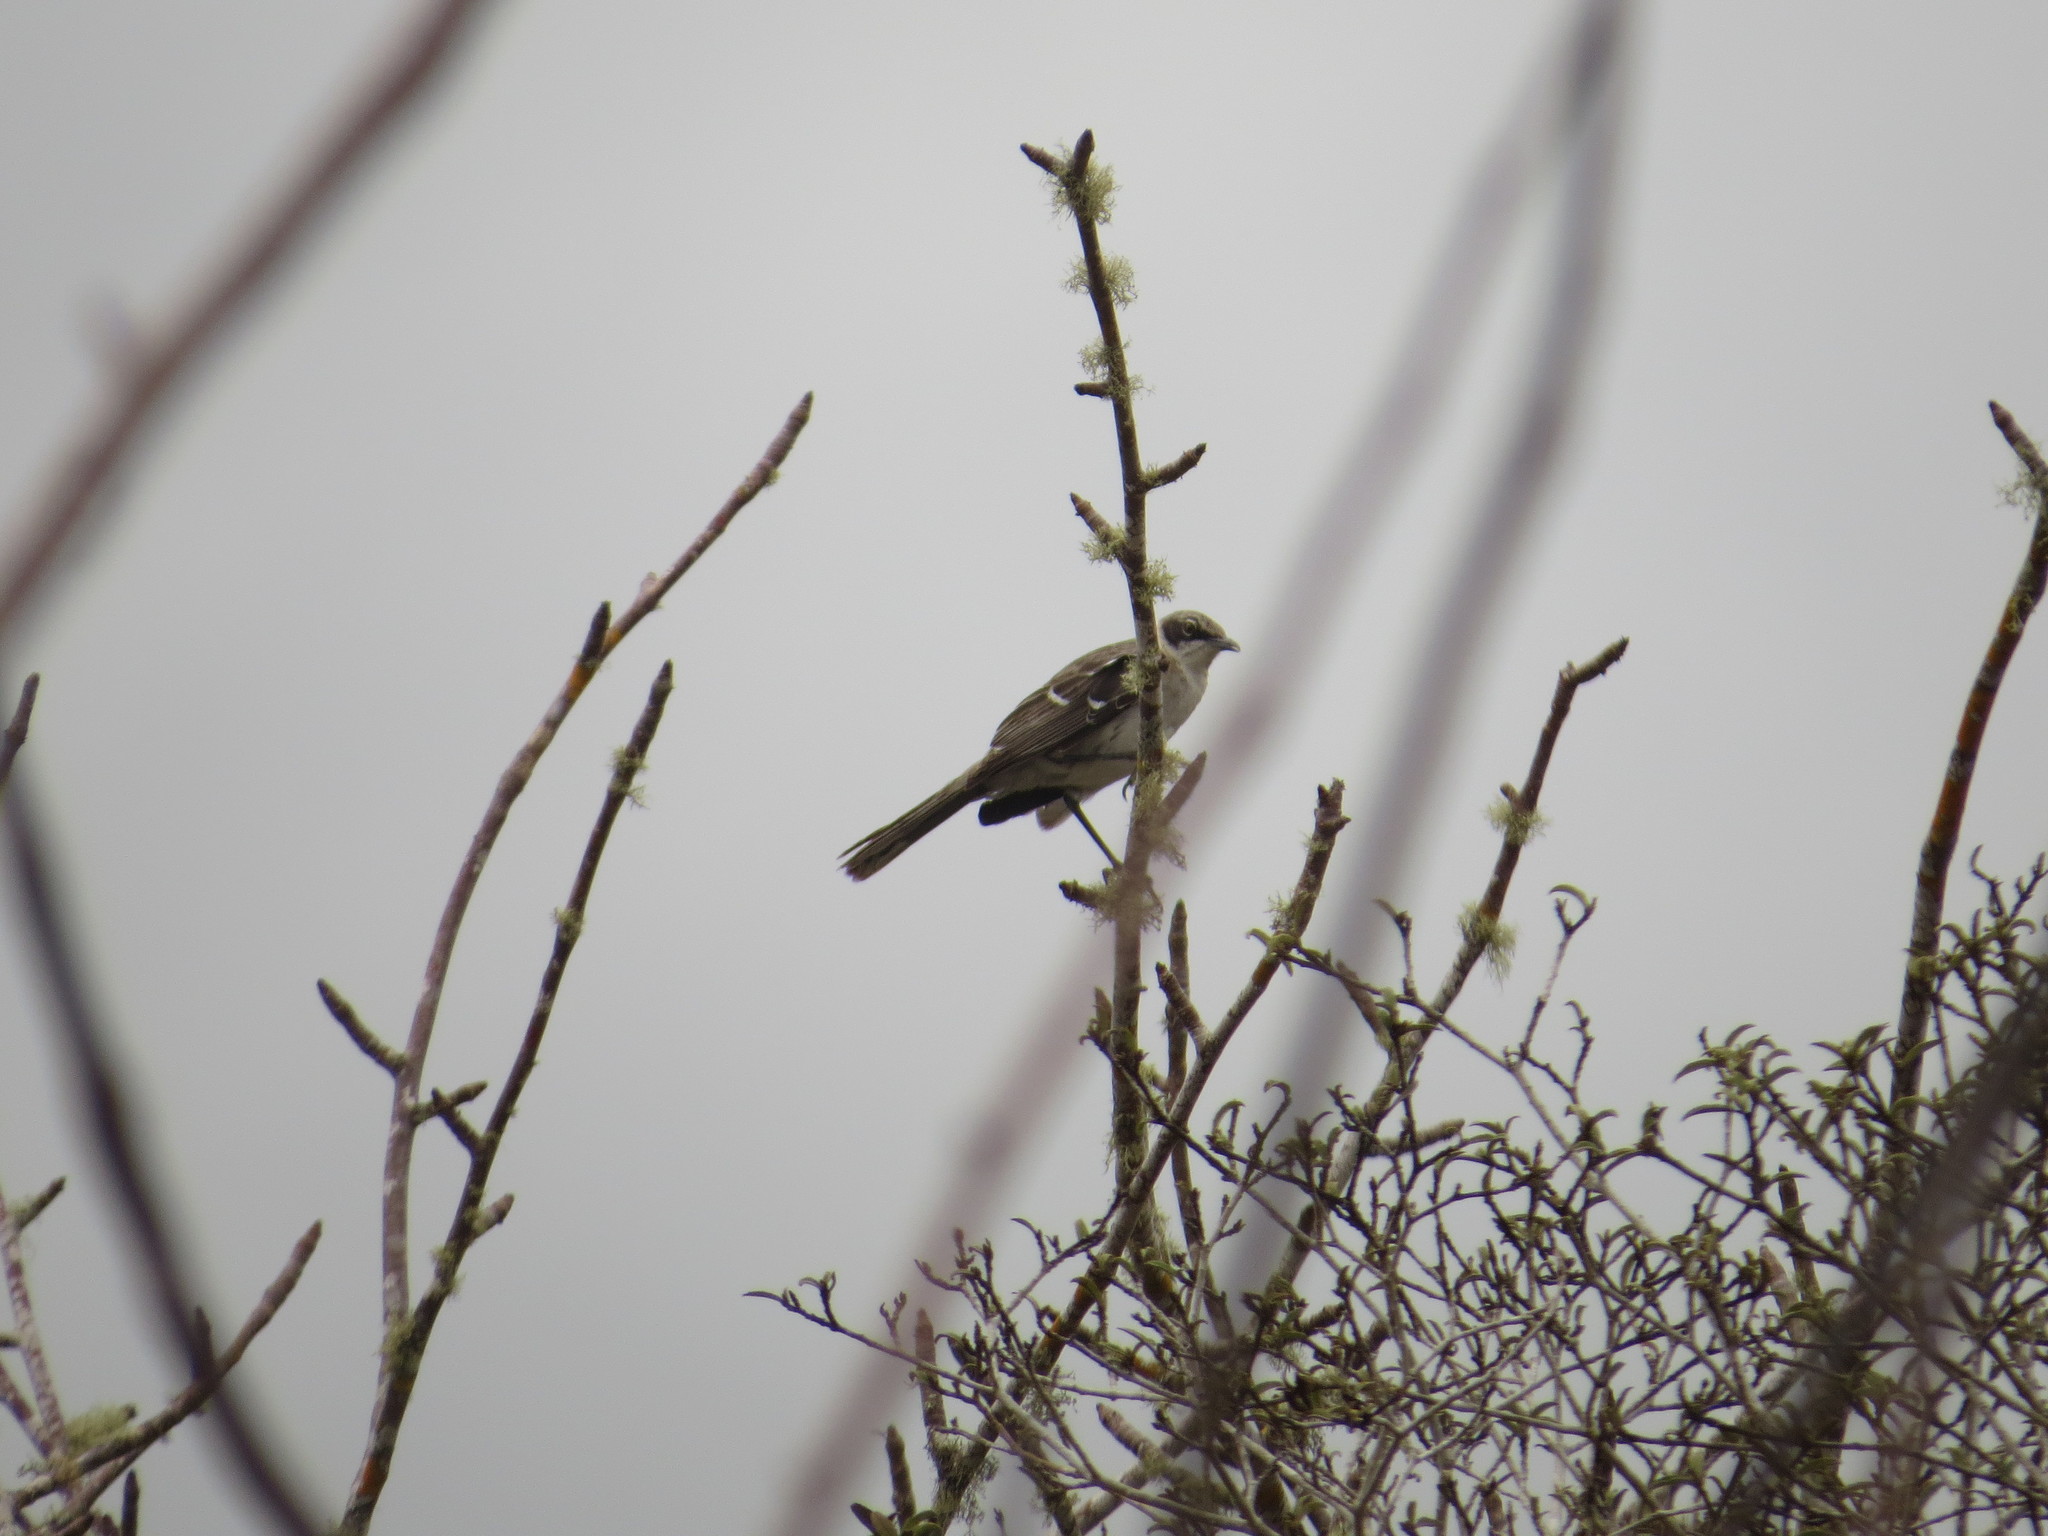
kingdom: Animalia
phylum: Chordata
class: Aves
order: Passeriformes
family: Mimidae
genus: Mimus
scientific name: Mimus parvulus
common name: Galapagos mockingbird
